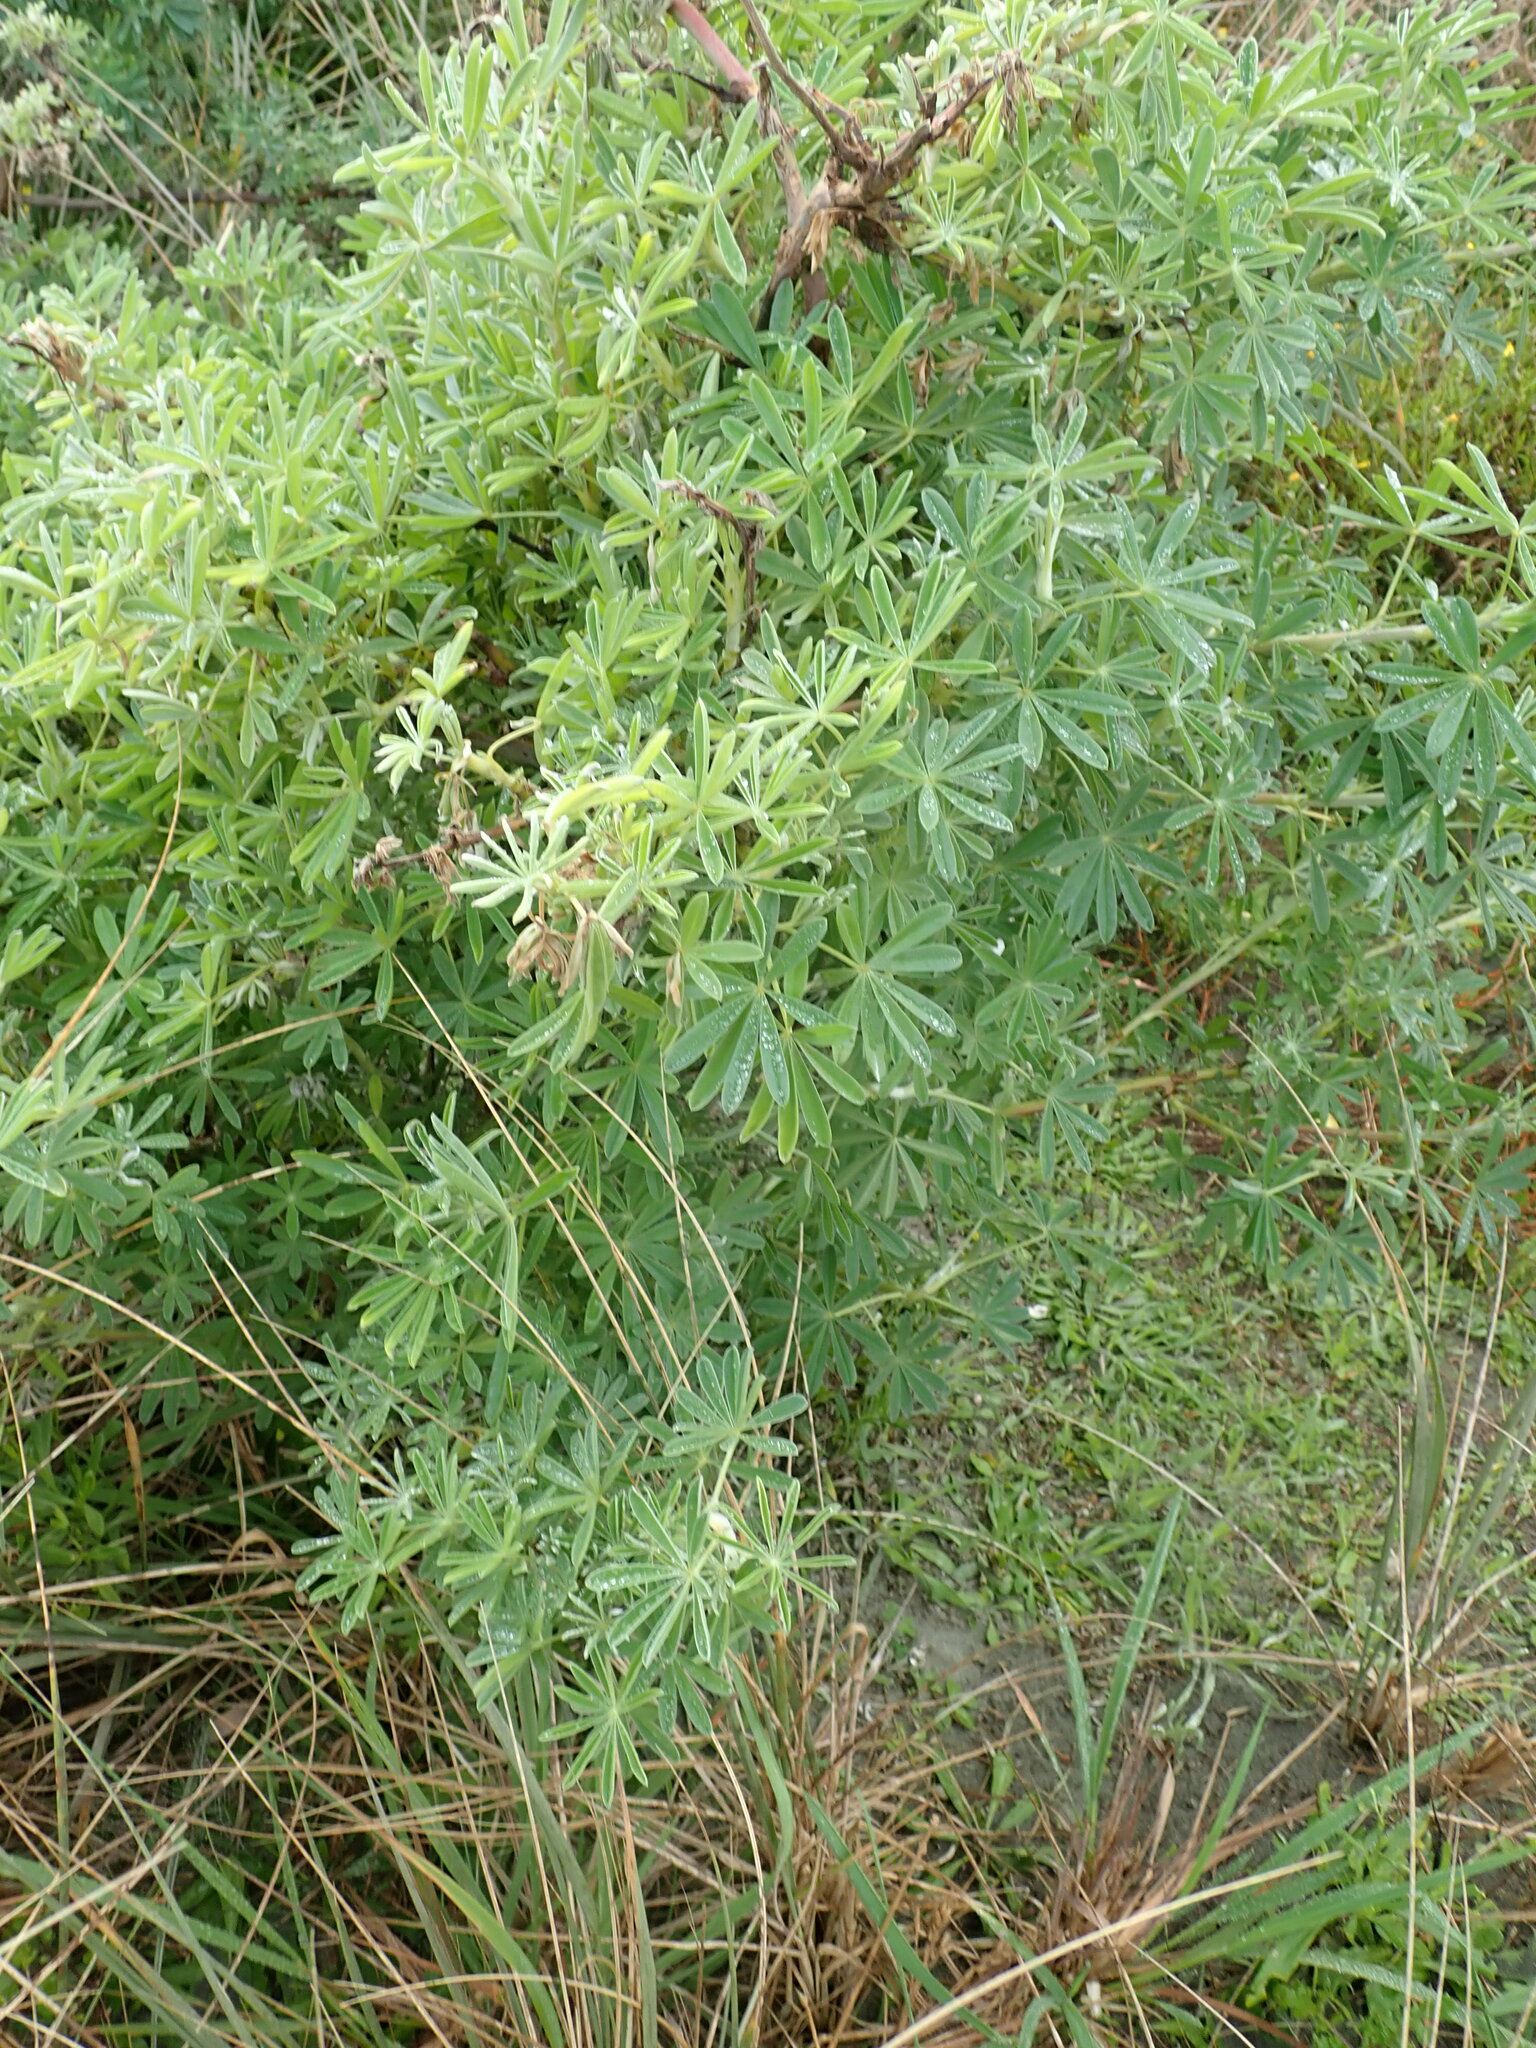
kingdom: Plantae
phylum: Tracheophyta
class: Magnoliopsida
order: Fabales
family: Fabaceae
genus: Lupinus
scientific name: Lupinus arboreus
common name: Yellow bush lupine
